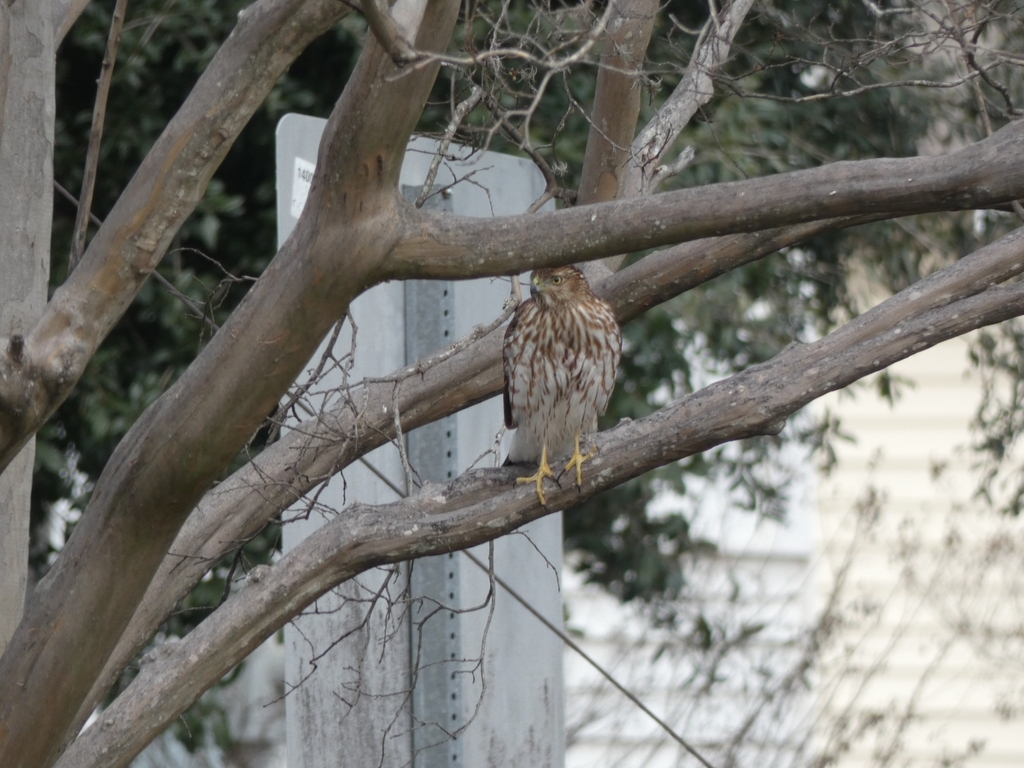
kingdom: Animalia
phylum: Chordata
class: Aves
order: Accipitriformes
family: Accipitridae
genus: Accipiter
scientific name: Accipiter cooperii
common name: Cooper's hawk
